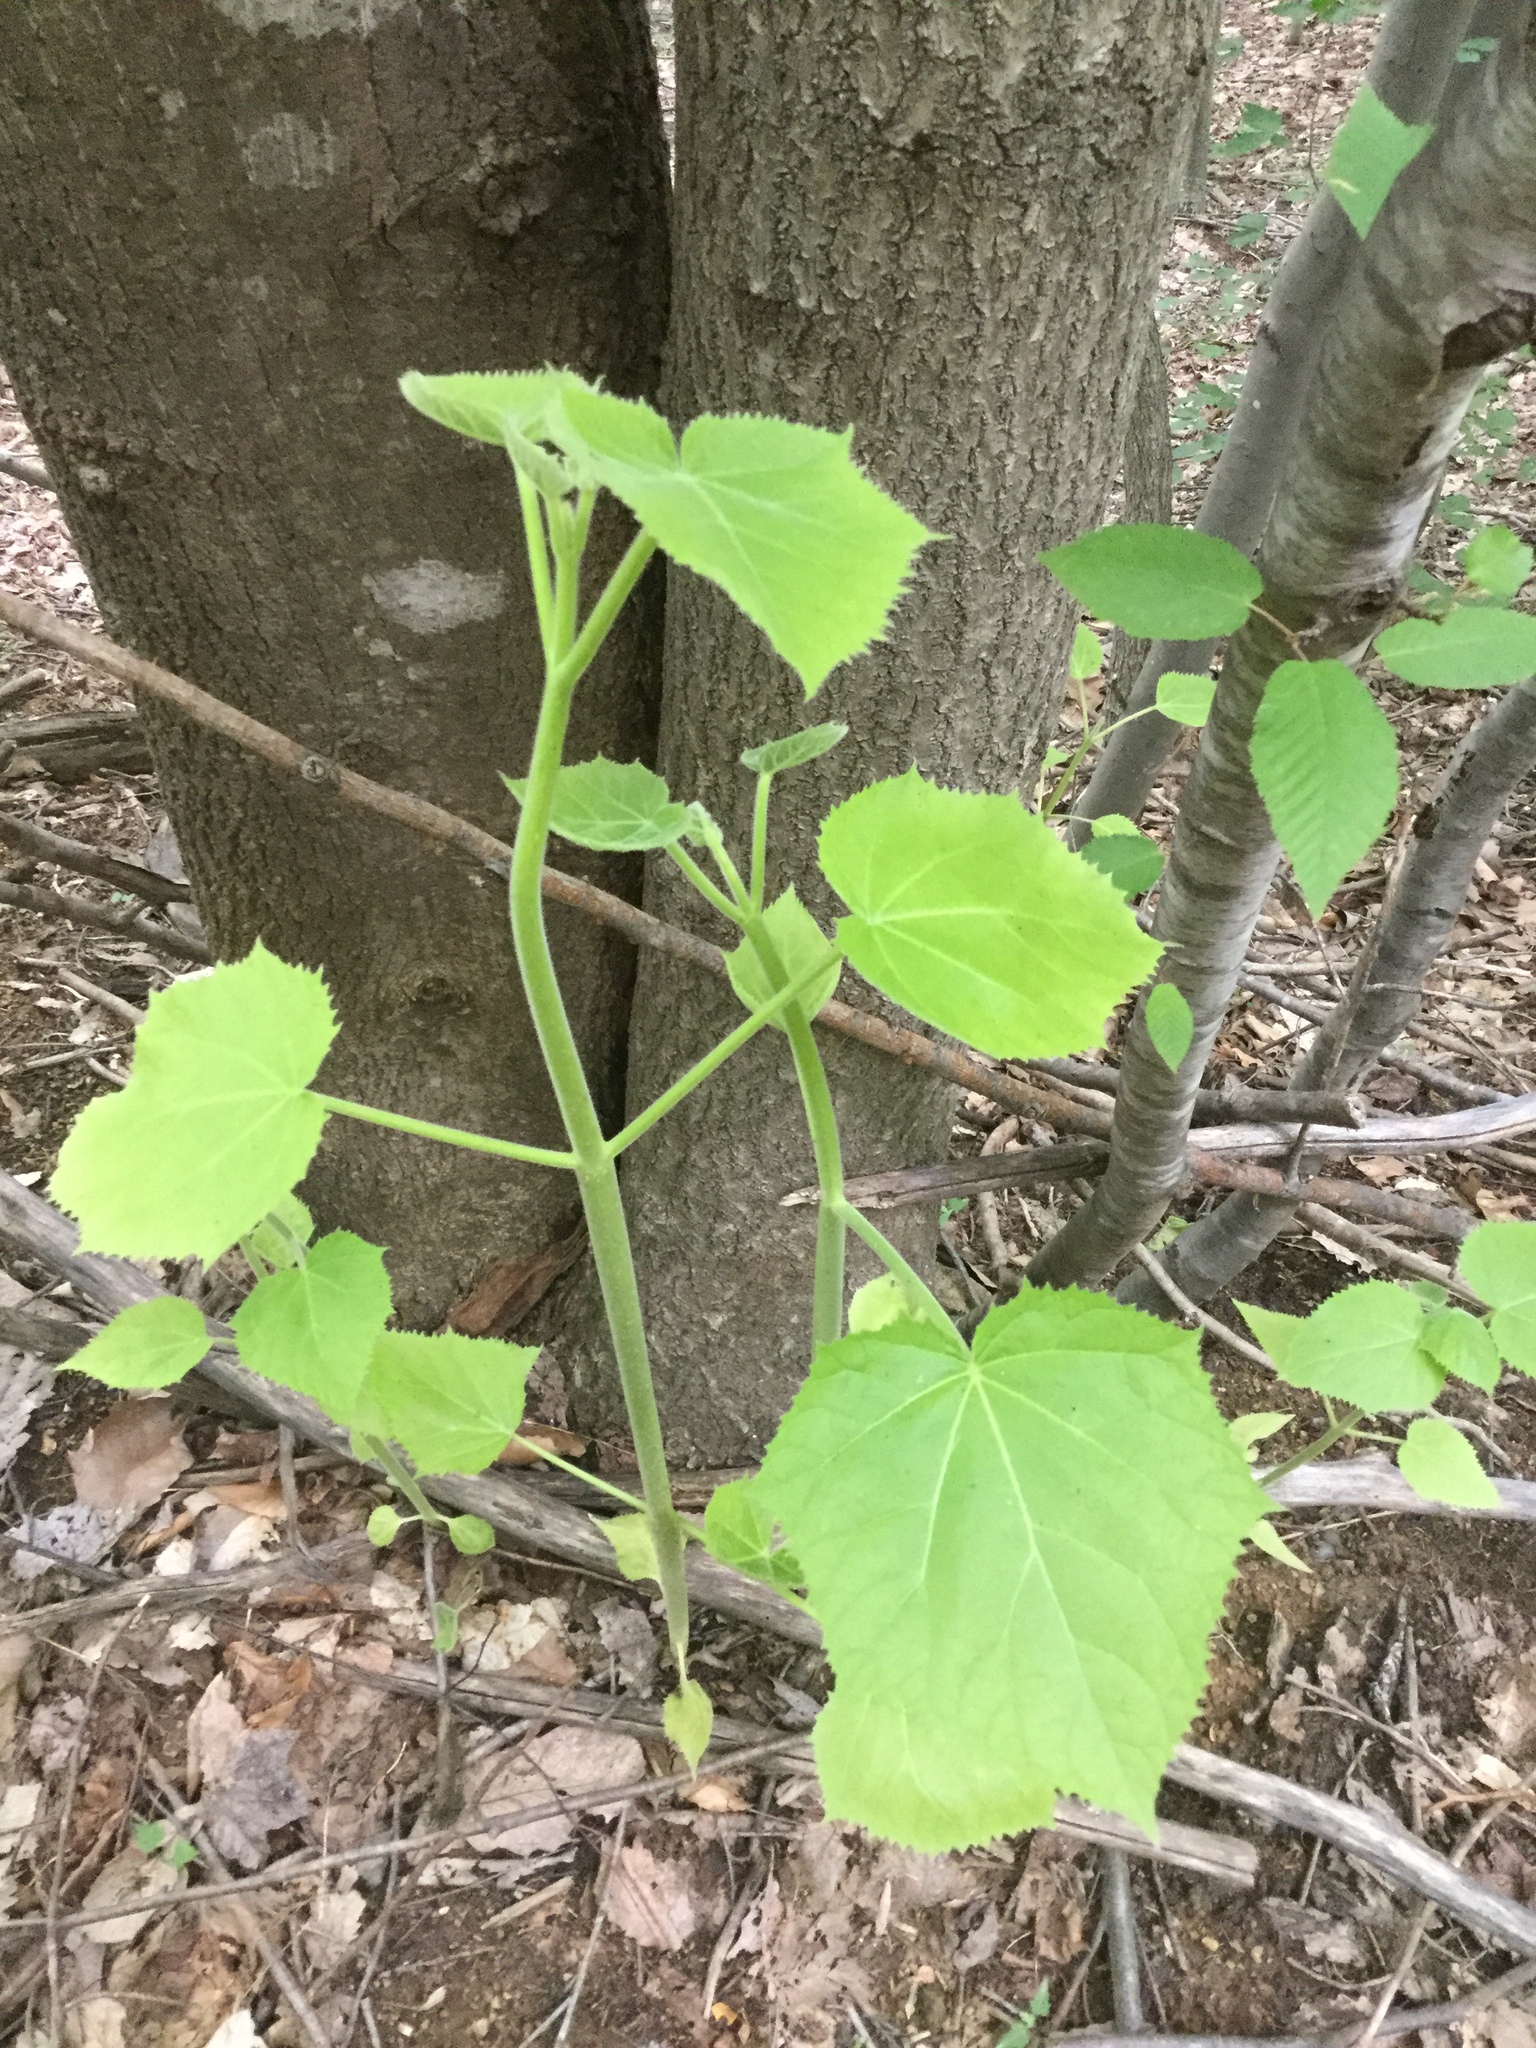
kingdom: Plantae
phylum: Tracheophyta
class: Magnoliopsida
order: Lamiales
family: Paulowniaceae
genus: Paulownia
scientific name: Paulownia tomentosa
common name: Foxglove-tree
